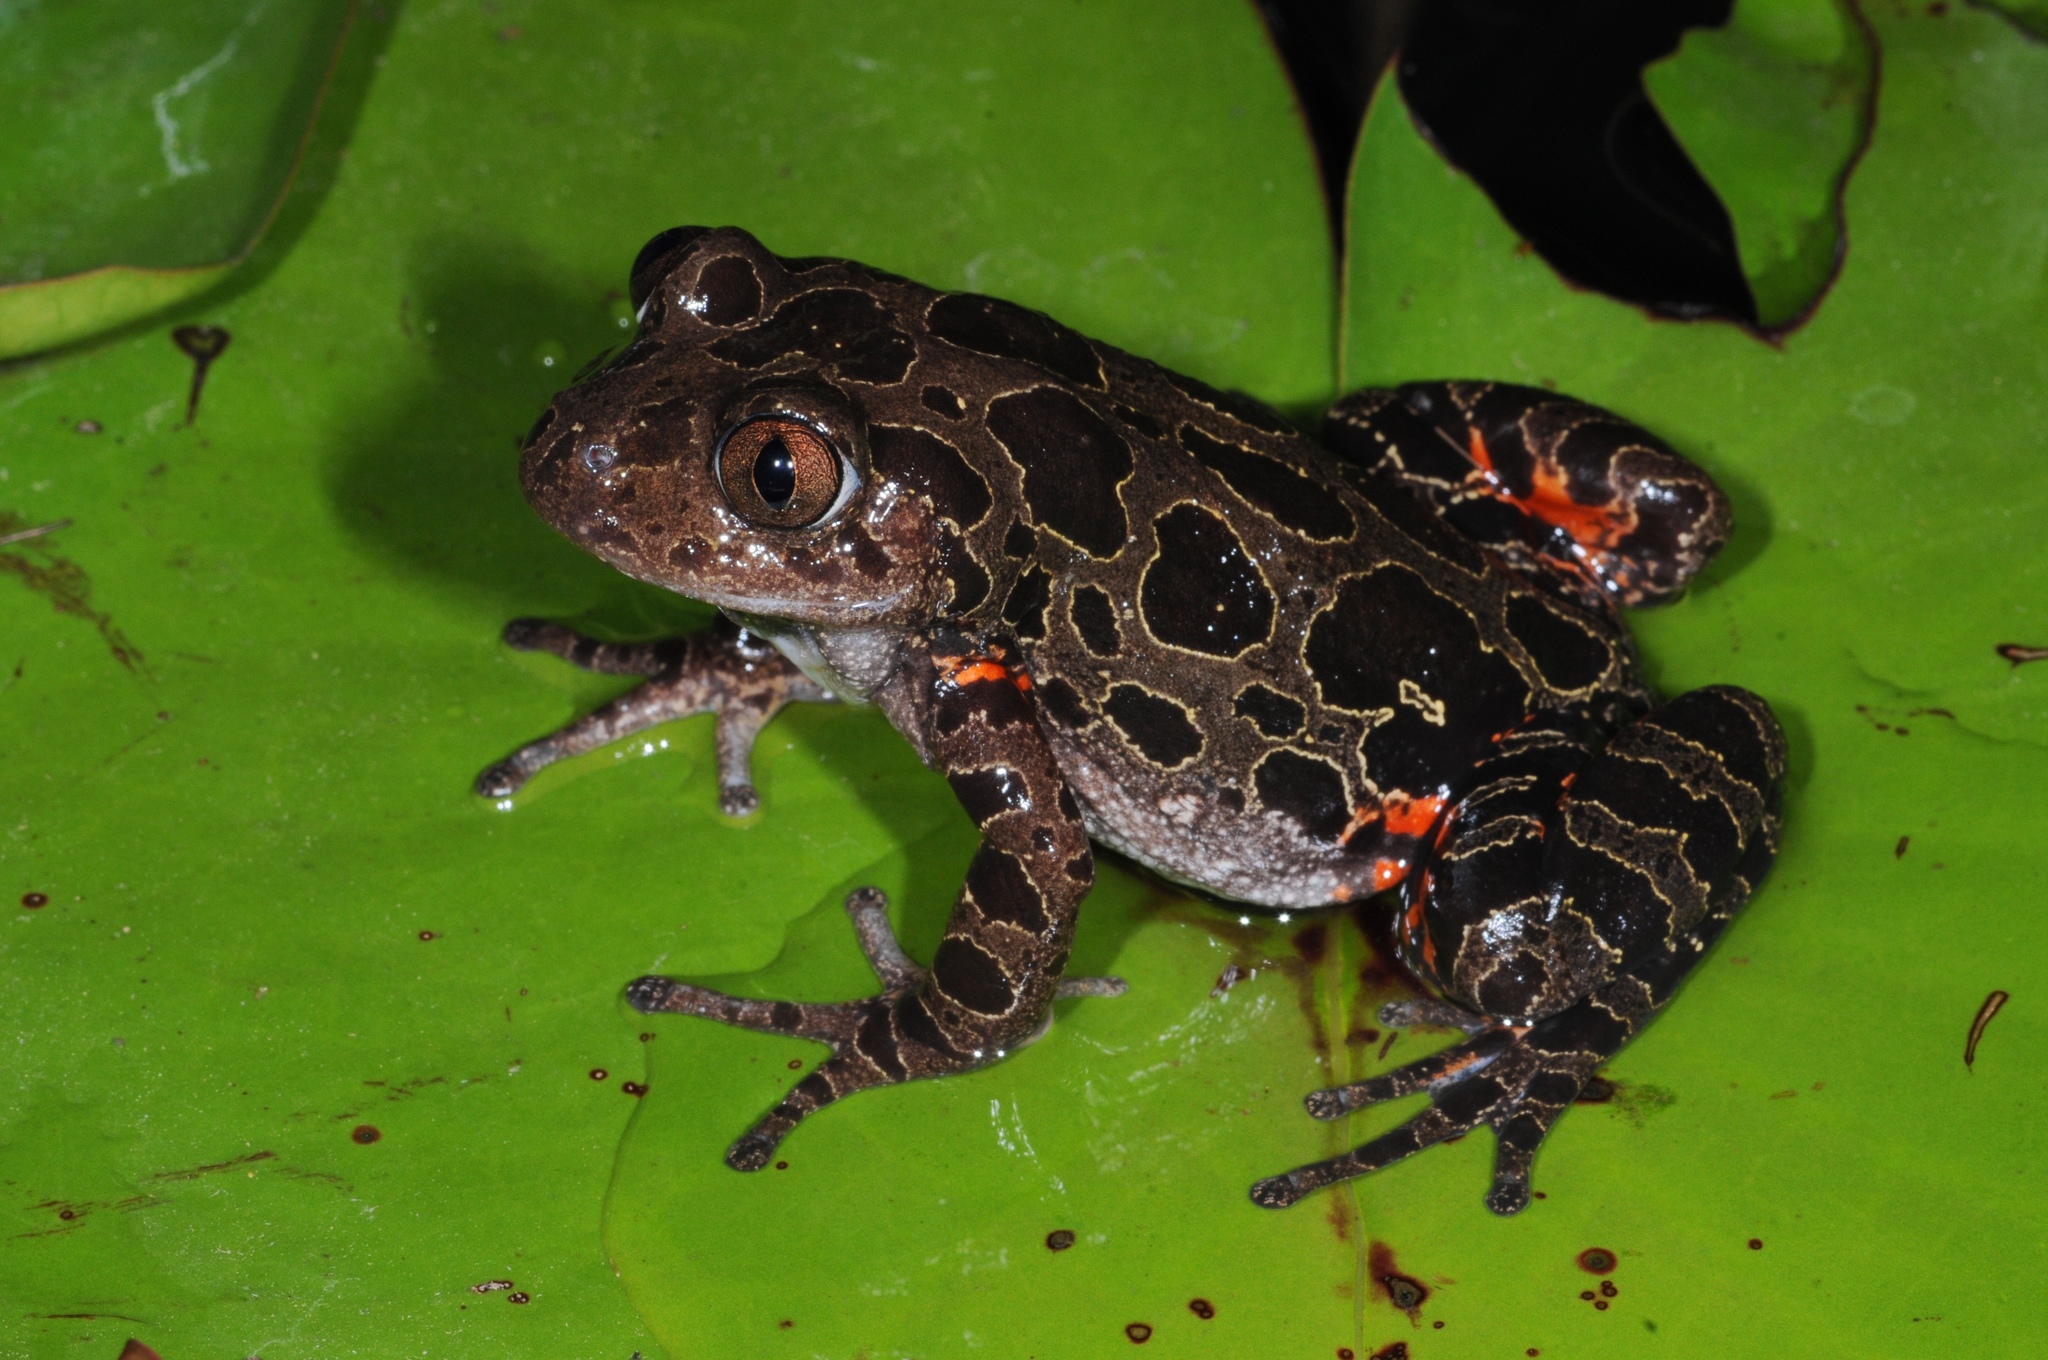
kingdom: Animalia
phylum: Chordata
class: Amphibia
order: Anura
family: Hyperoliidae
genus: Phlyctimantis
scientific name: Phlyctimantis maculatus
